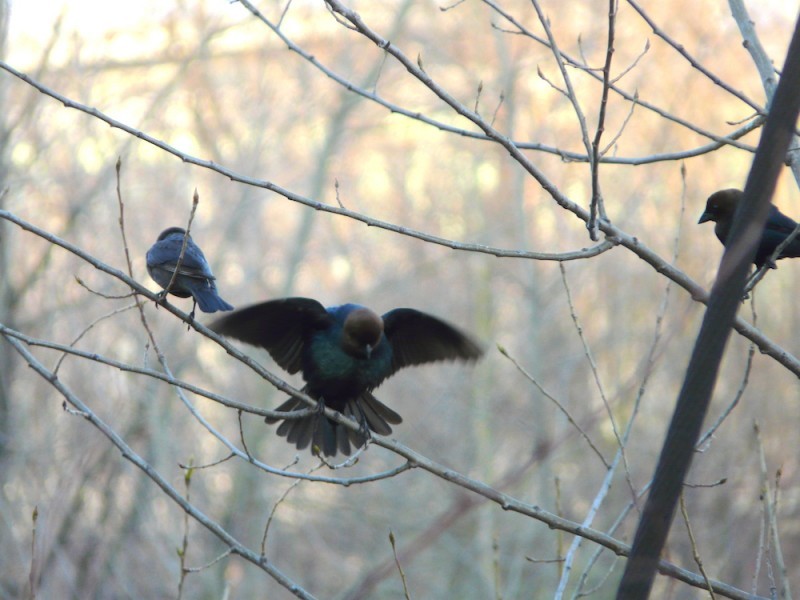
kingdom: Animalia
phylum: Chordata
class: Aves
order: Passeriformes
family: Icteridae
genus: Molothrus
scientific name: Molothrus ater
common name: Brown-headed cowbird
